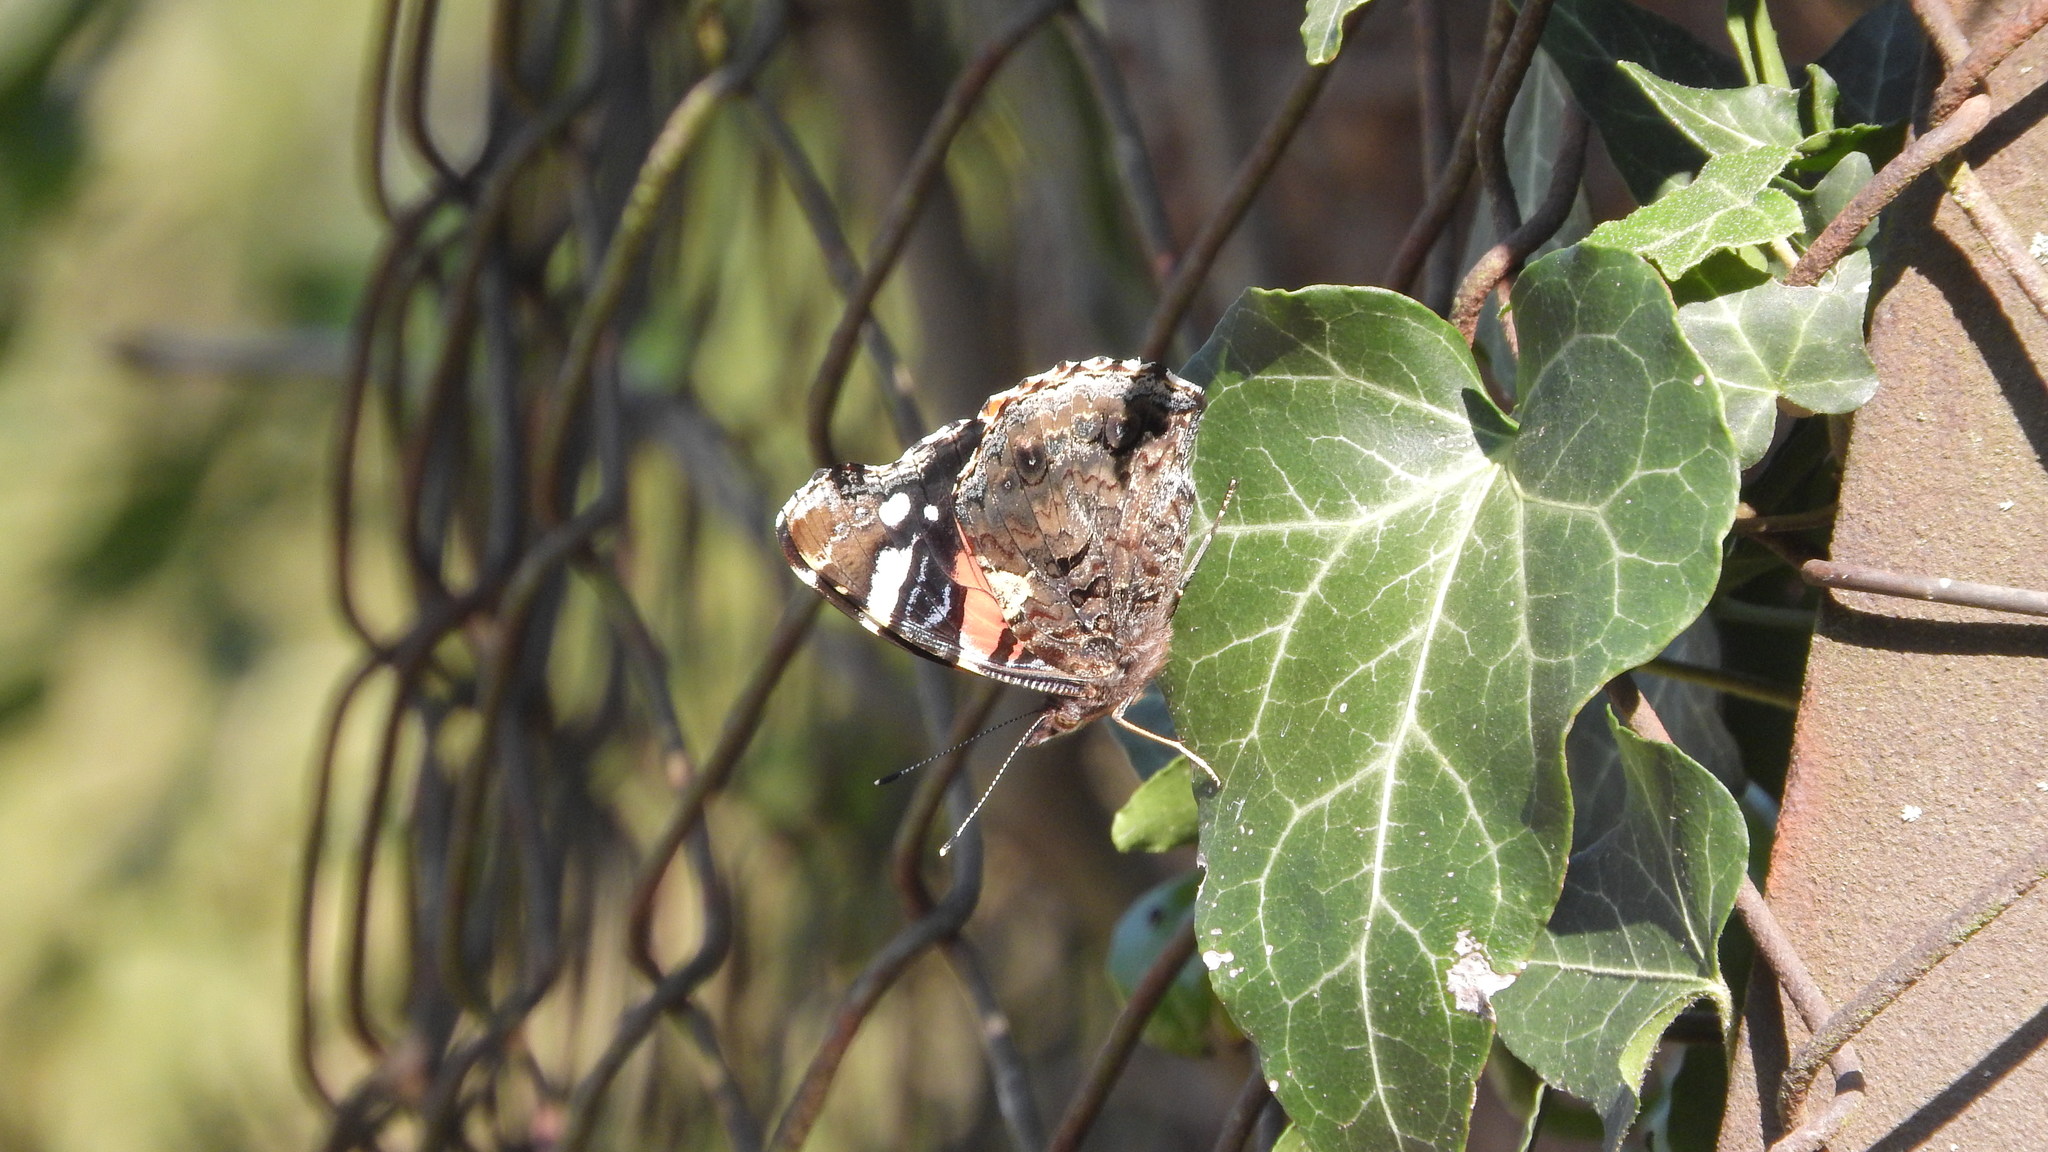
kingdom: Animalia
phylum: Arthropoda
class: Insecta
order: Lepidoptera
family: Nymphalidae
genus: Vanessa
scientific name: Vanessa atalanta
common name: Red admiral
